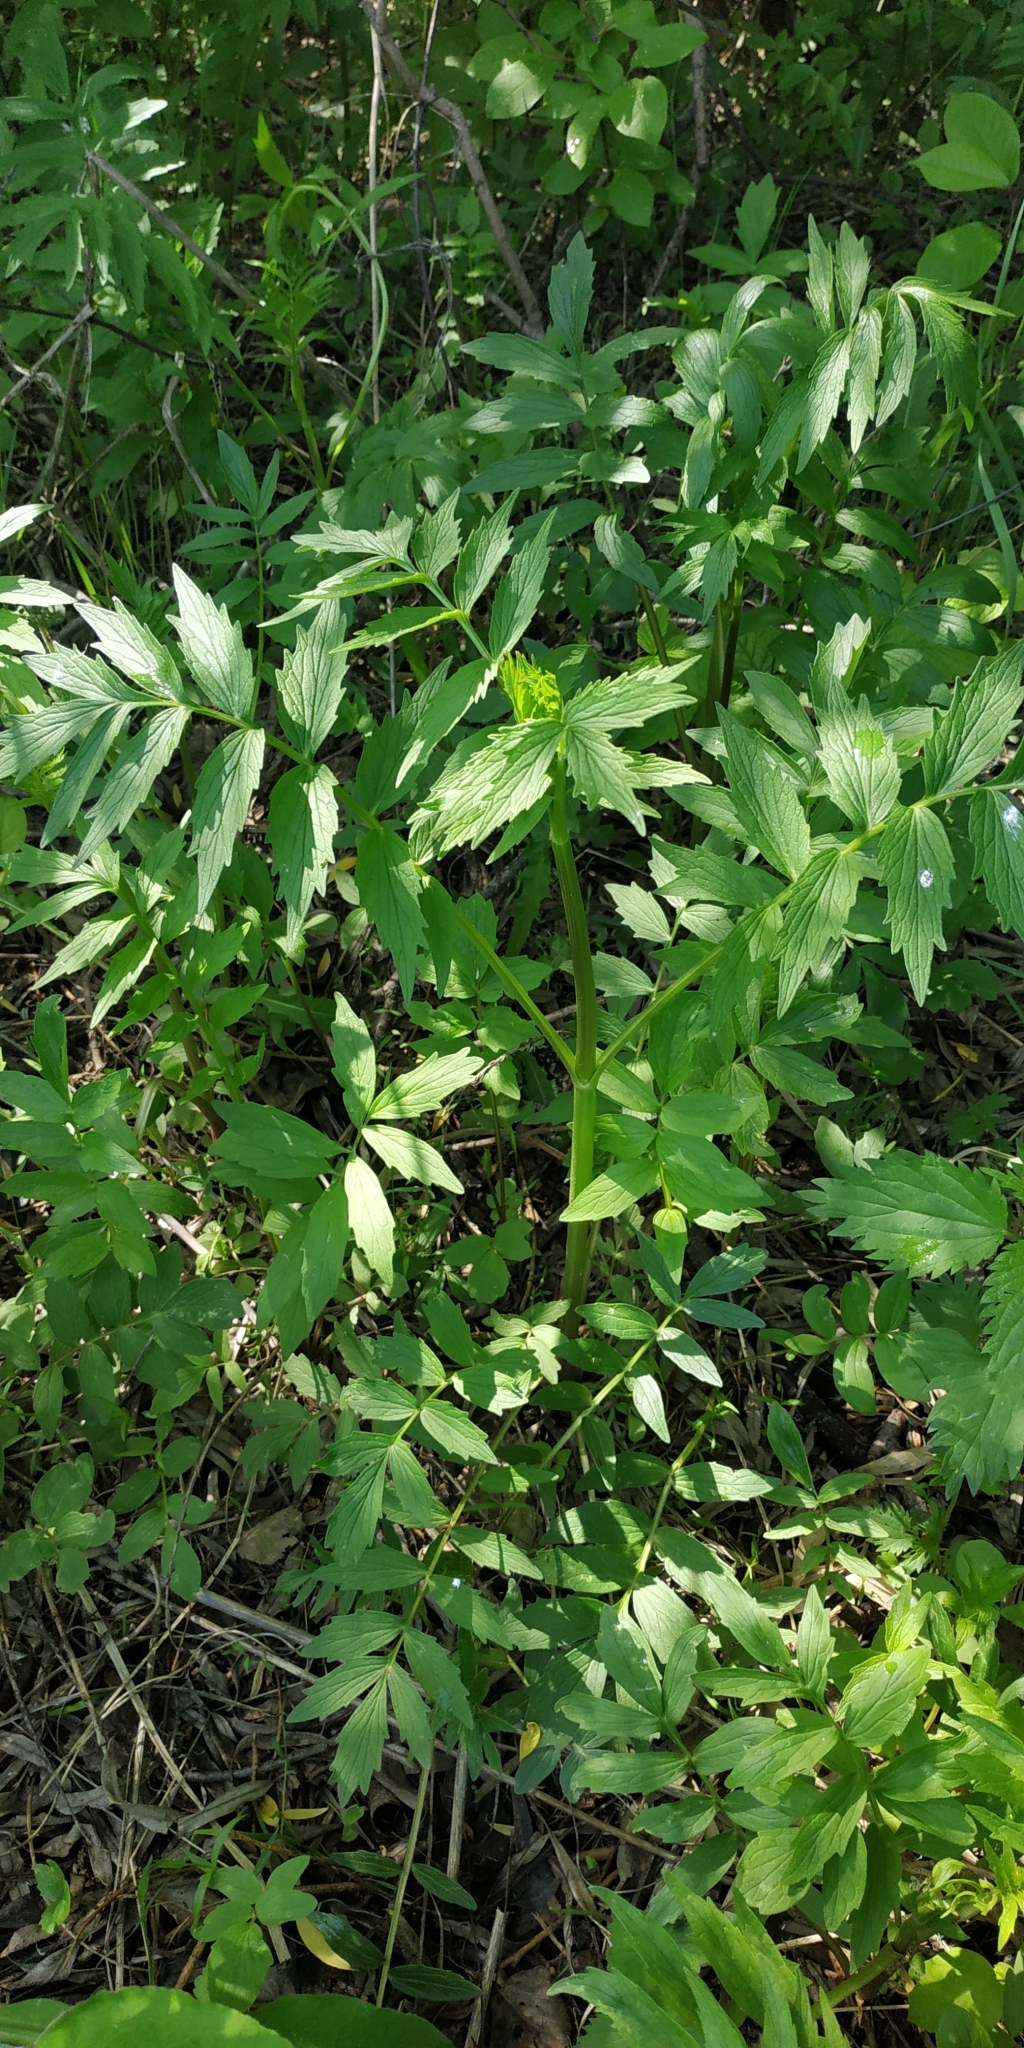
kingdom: Plantae
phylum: Tracheophyta
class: Magnoliopsida
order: Dipsacales
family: Caprifoliaceae
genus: Valeriana
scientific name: Valeriana wolgensis
